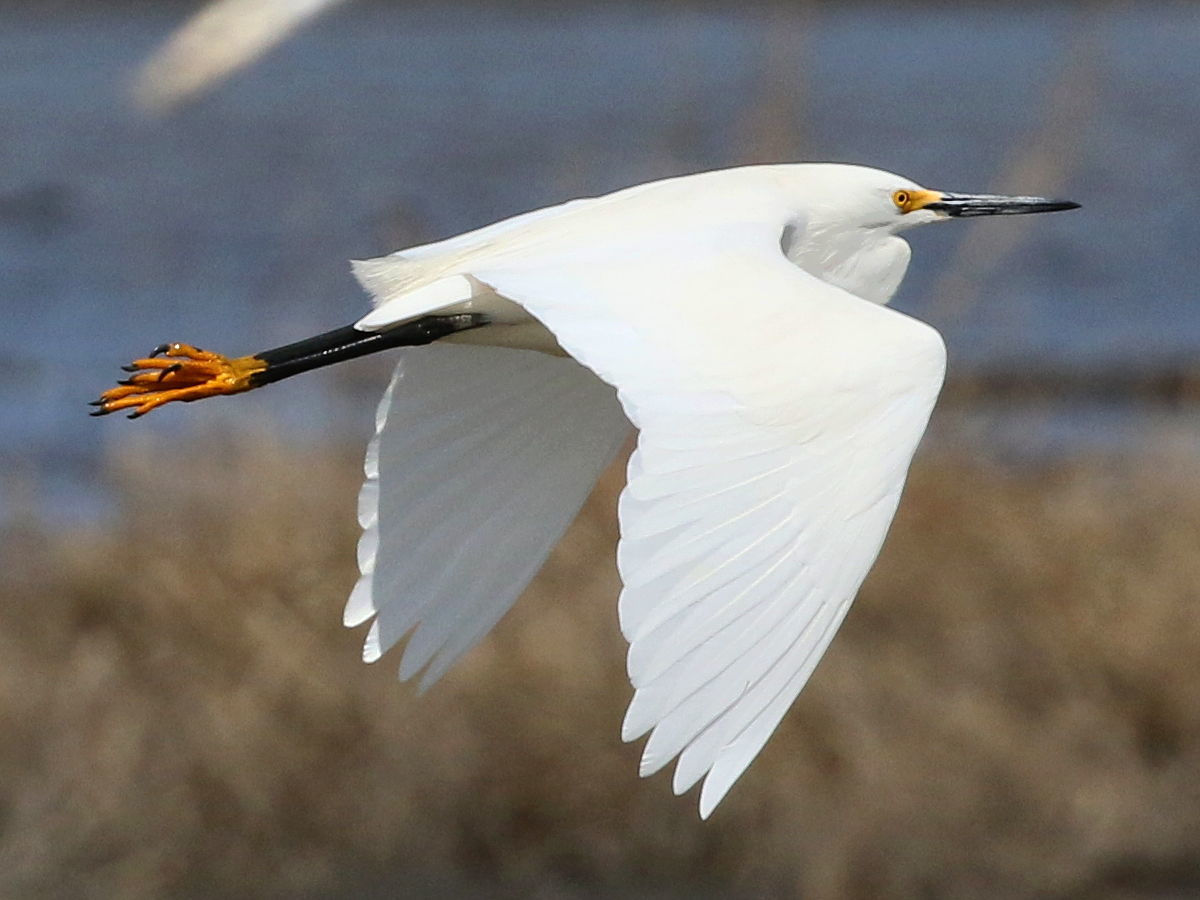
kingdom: Animalia
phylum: Chordata
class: Aves
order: Pelecaniformes
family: Ardeidae
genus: Egretta
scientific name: Egretta thula
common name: Snowy egret
